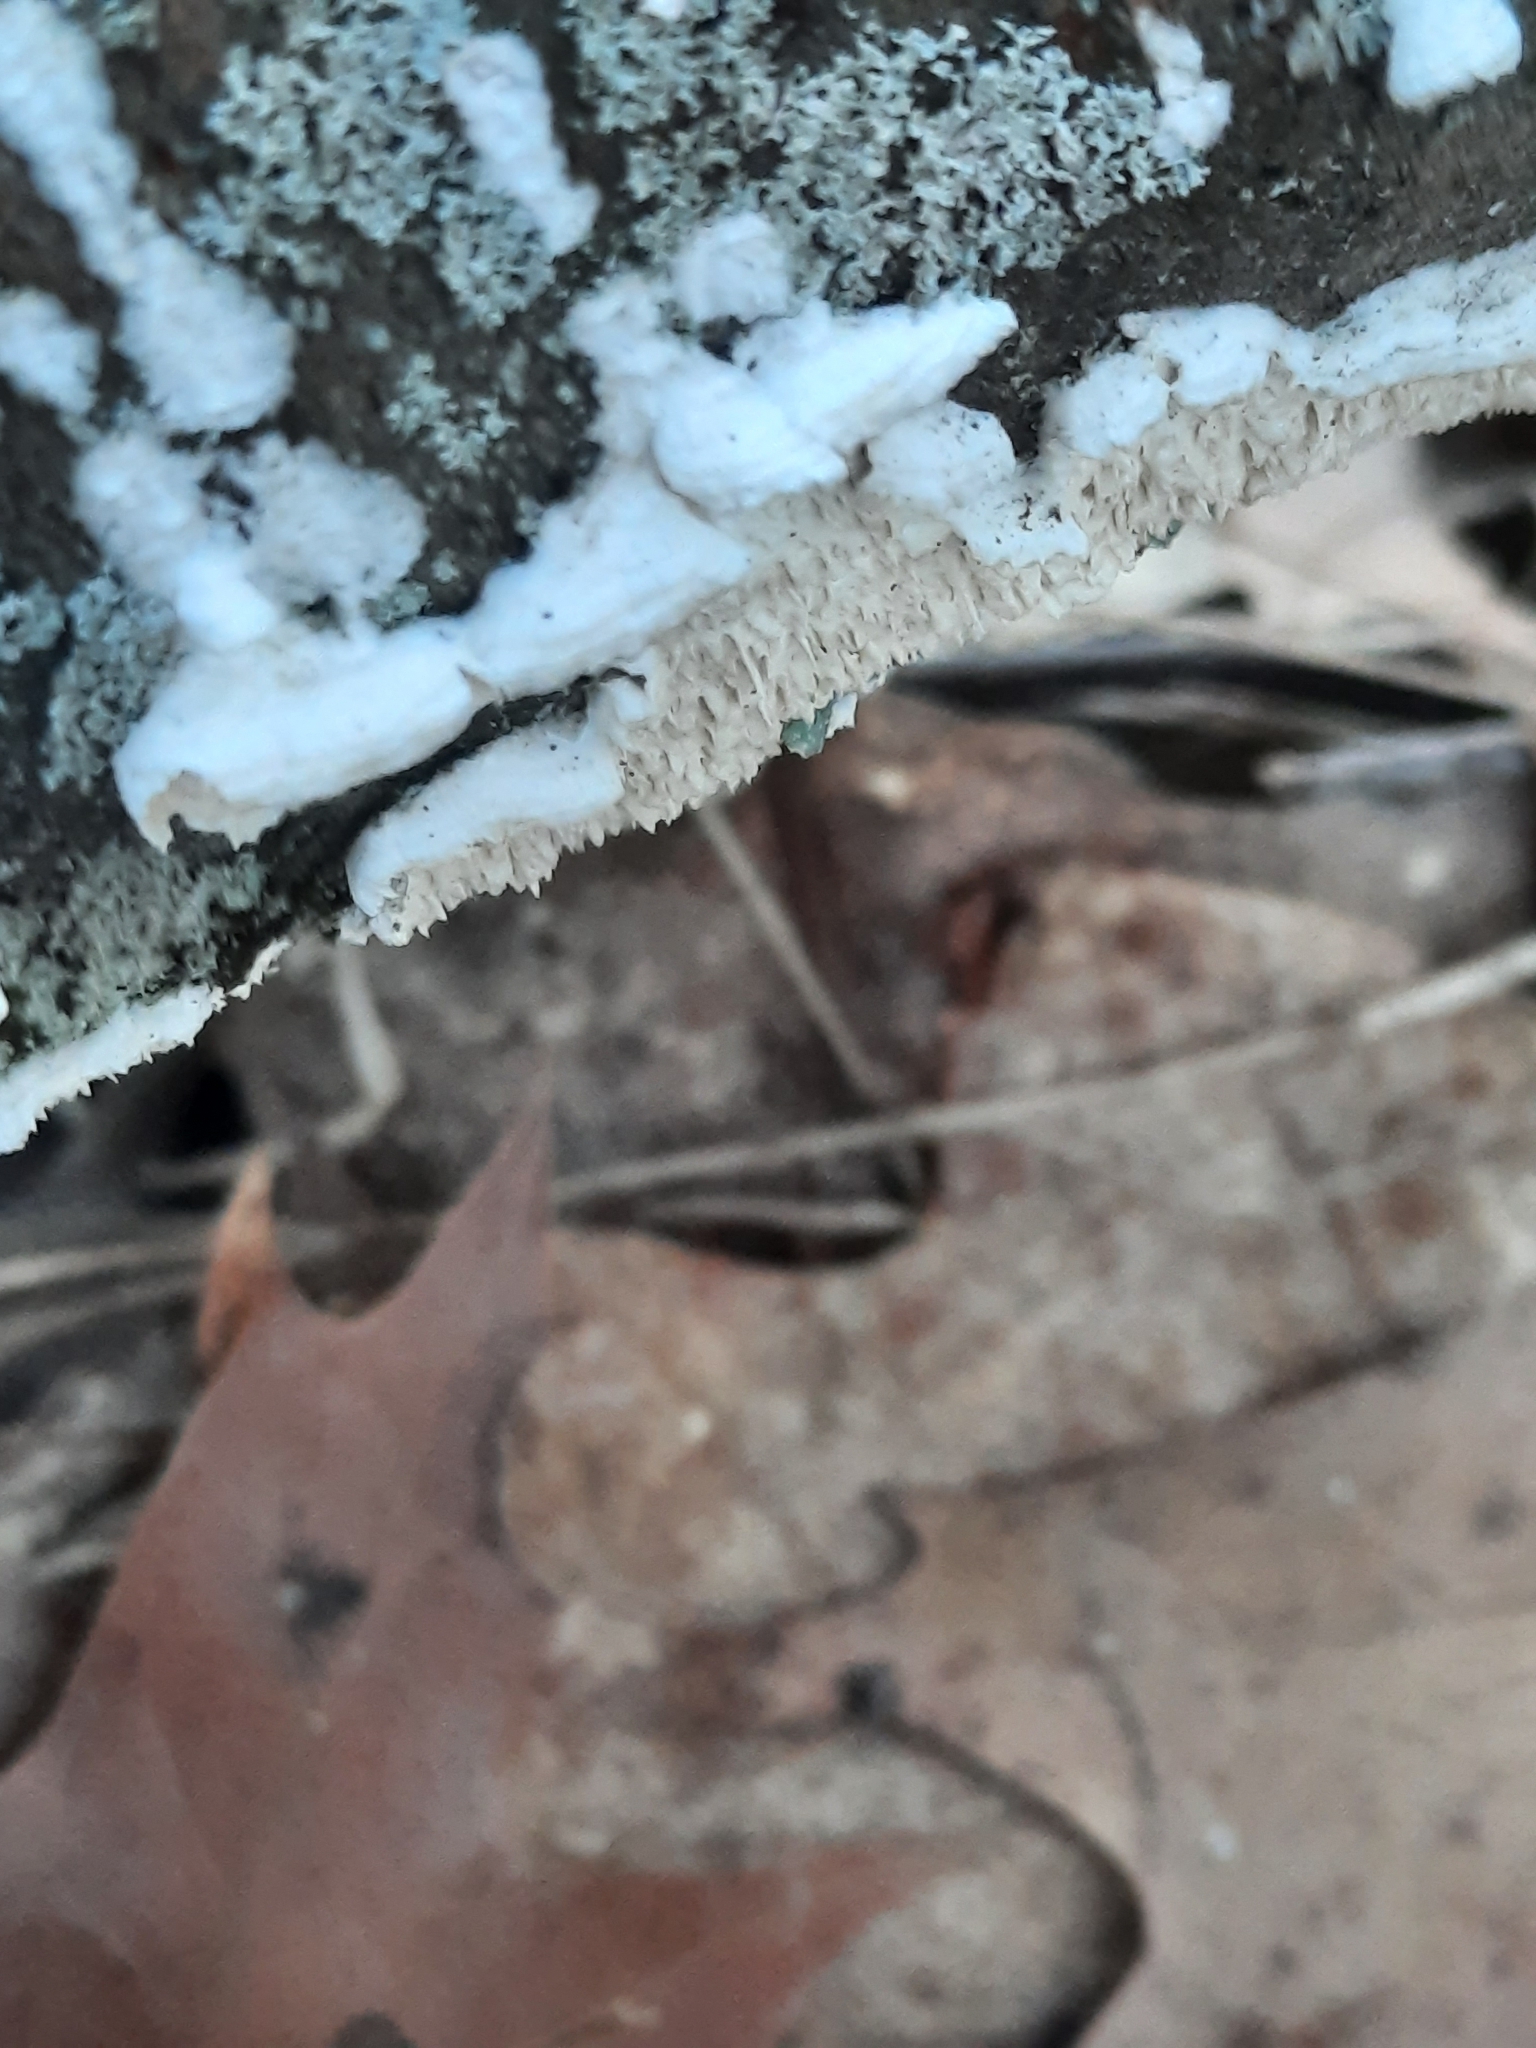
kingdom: Fungi
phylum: Basidiomycota
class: Agaricomycetes
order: Polyporales
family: Irpicaceae
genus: Irpex
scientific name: Irpex lacteus
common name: Milk-white toothed polypore
